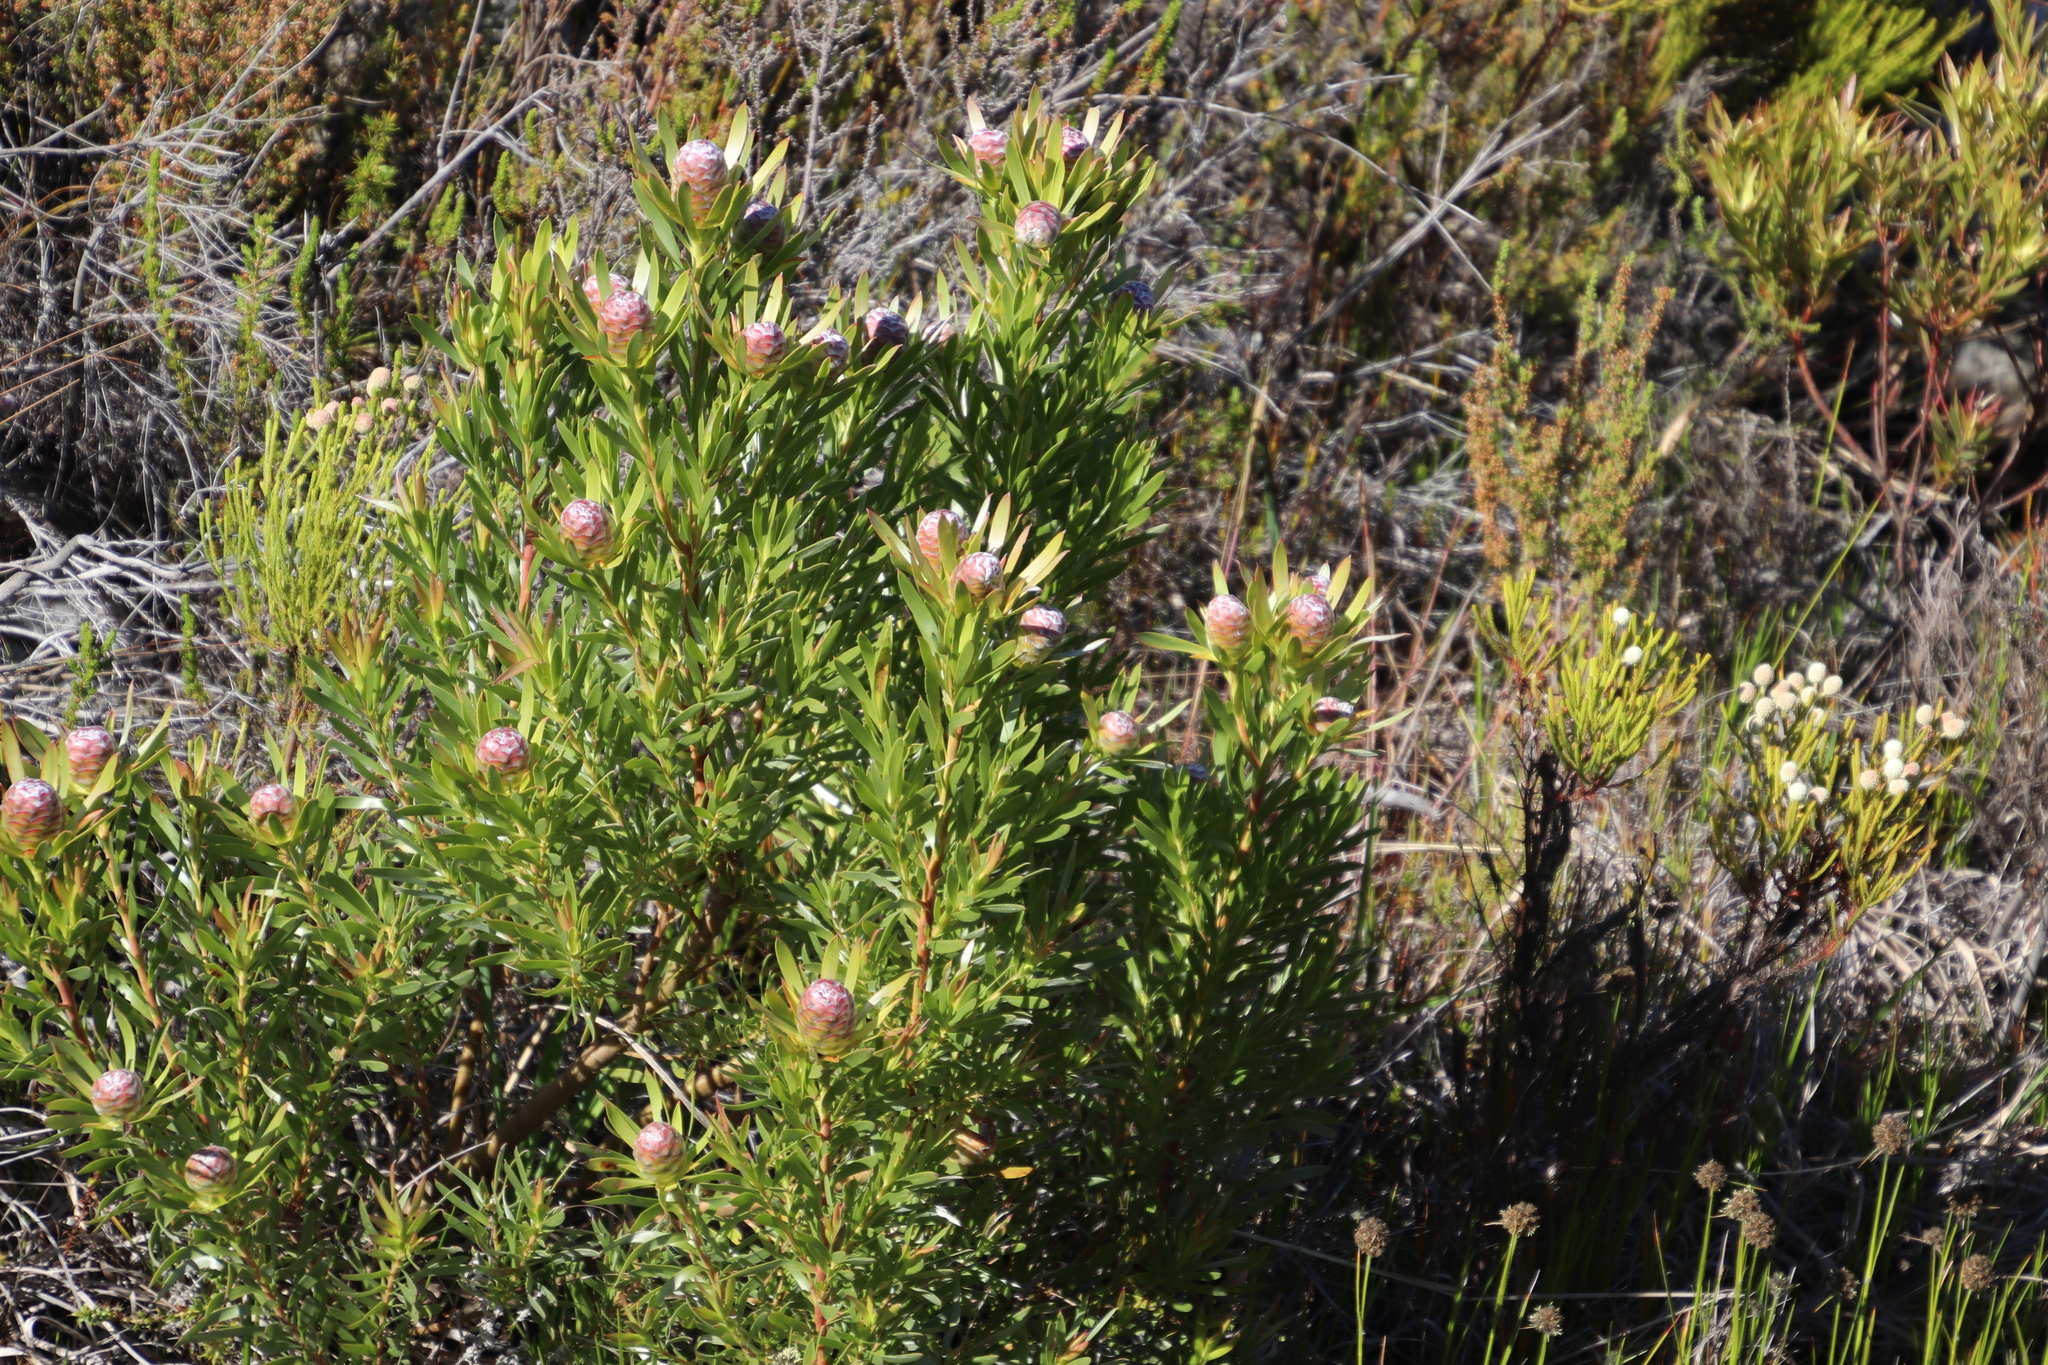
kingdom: Plantae
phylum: Tracheophyta
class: Magnoliopsida
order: Proteales
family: Proteaceae
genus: Leucadendron
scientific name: Leucadendron xanthoconus
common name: Sickle-leaf conebush
